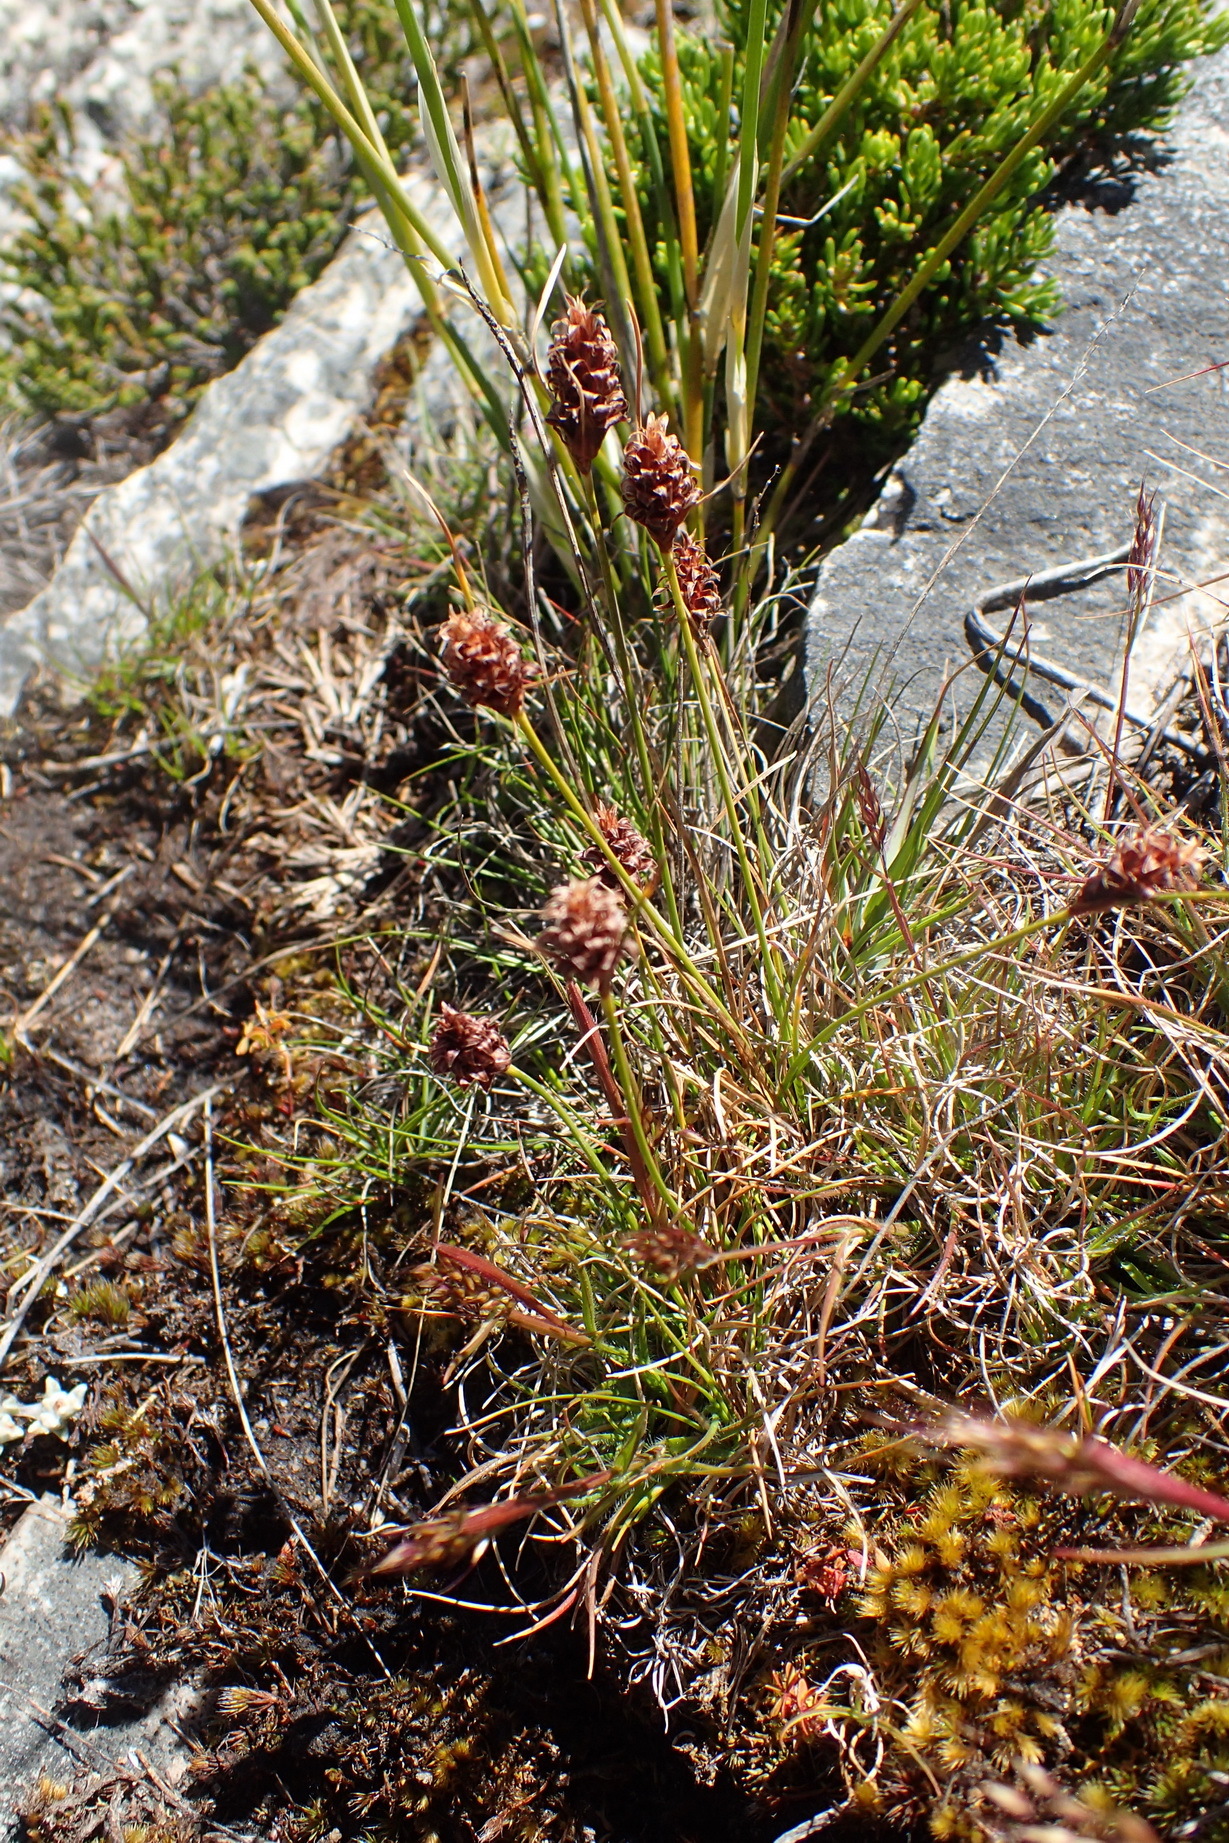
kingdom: Plantae
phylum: Tracheophyta
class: Liliopsida
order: Poales
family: Cyperaceae
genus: Ficinia
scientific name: Ficinia nigrescens
